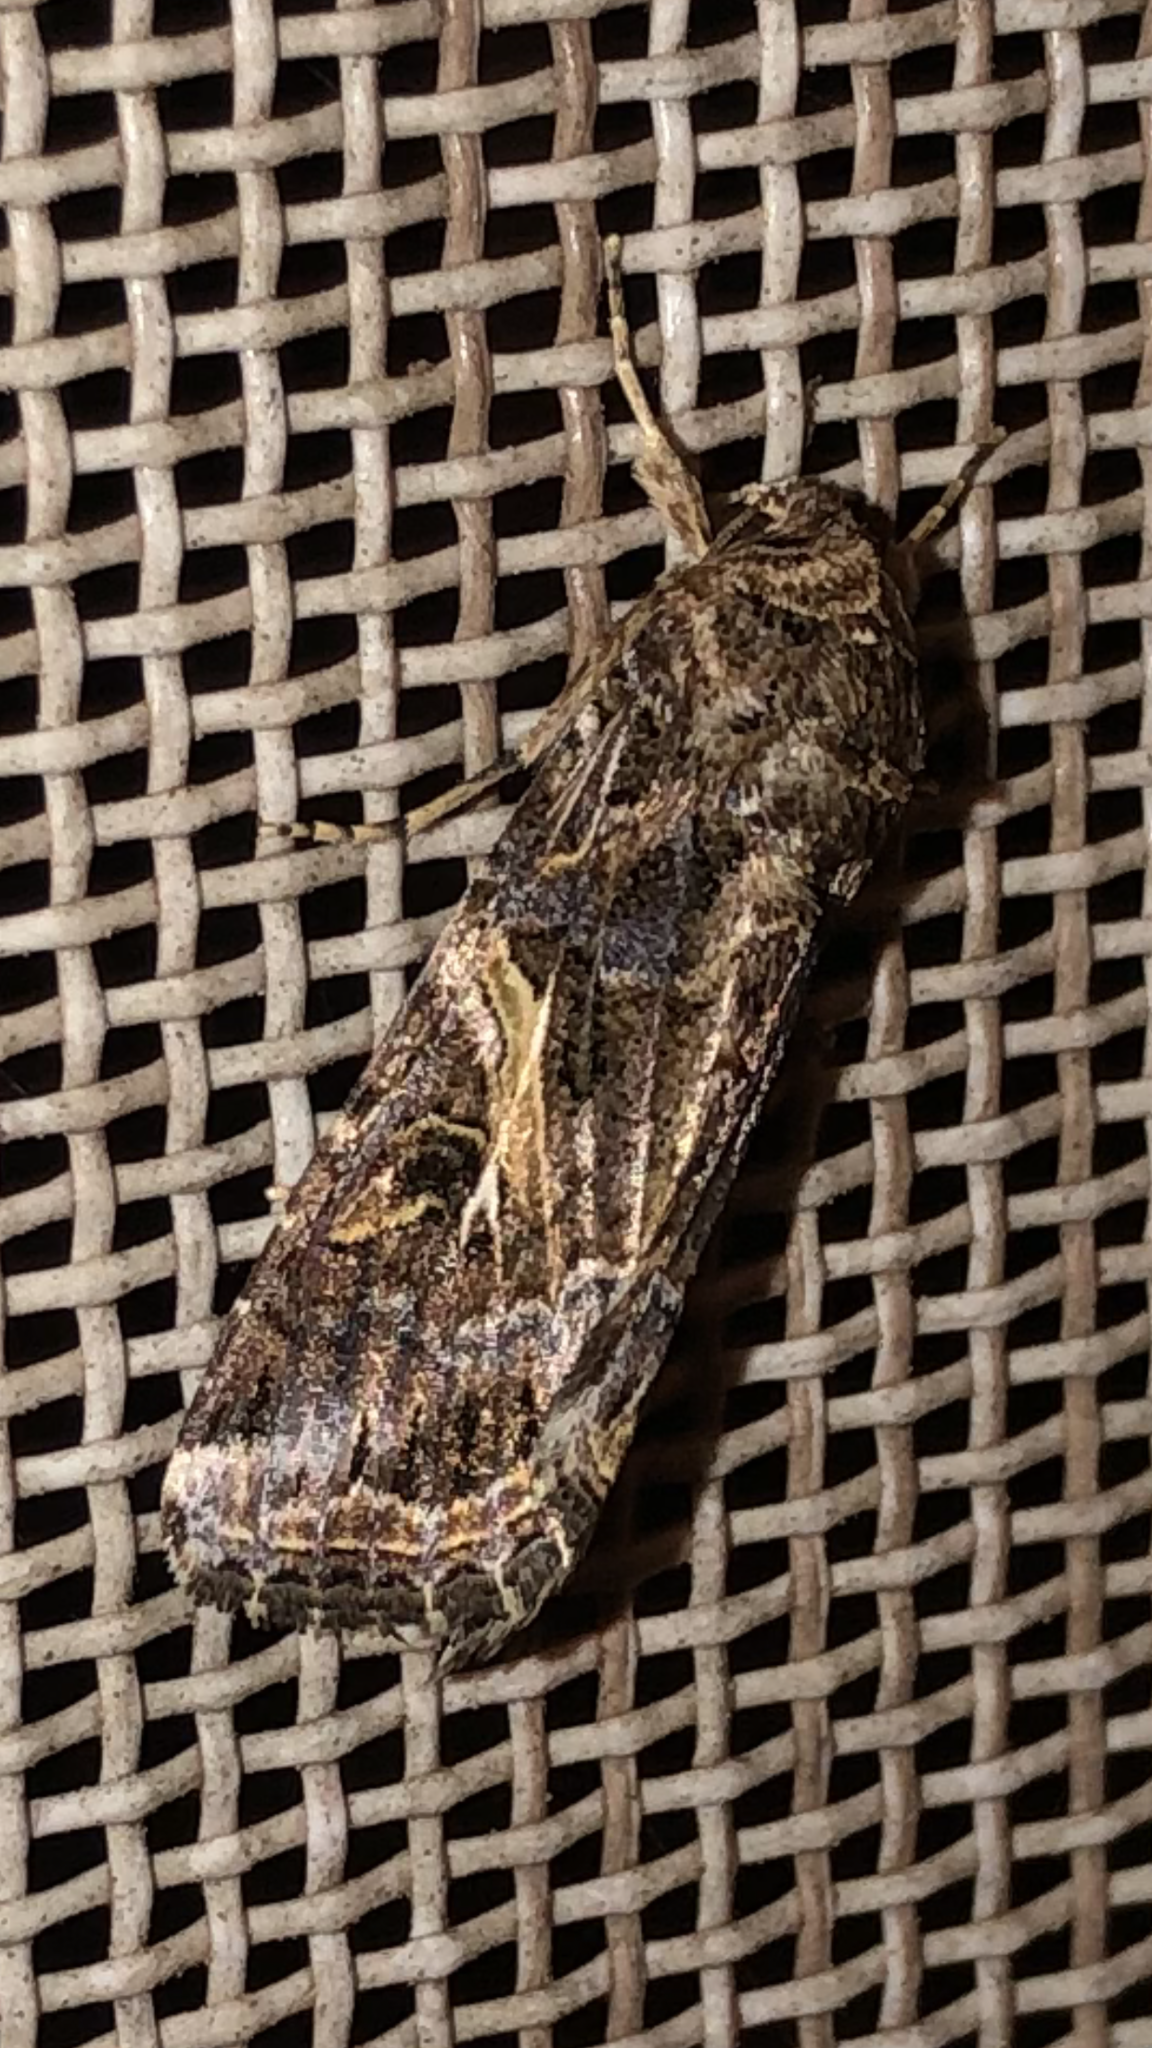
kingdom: Animalia
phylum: Arthropoda
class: Insecta
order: Lepidoptera
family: Noctuidae
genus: Spodoptera
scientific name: Spodoptera ornithogalli
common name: Yellow-striped armyworm
